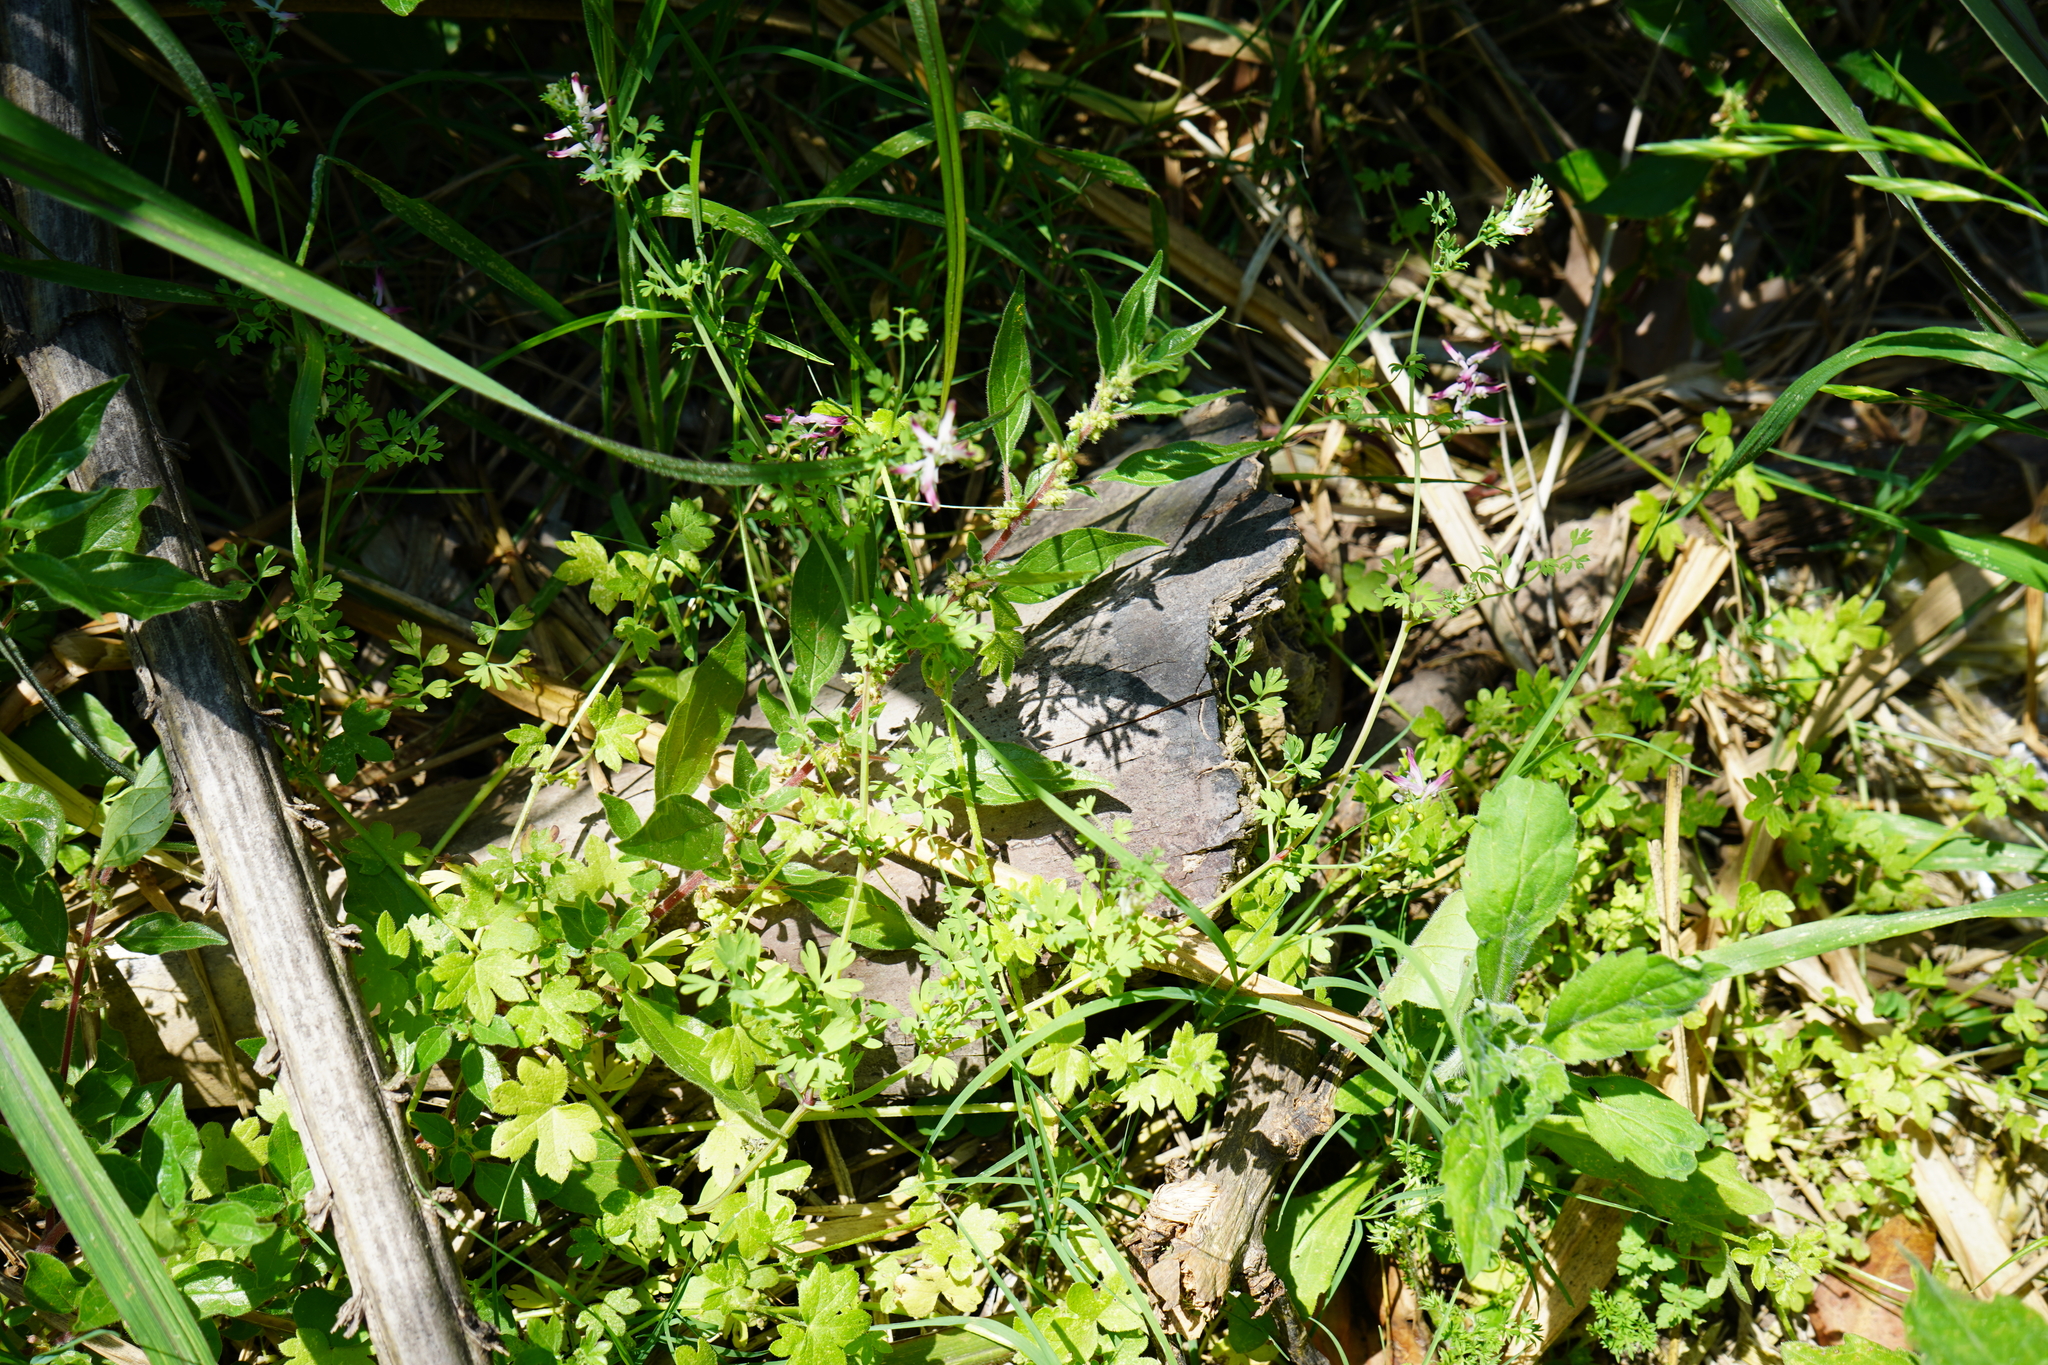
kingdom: Plantae
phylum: Tracheophyta
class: Magnoliopsida
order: Ranunculales
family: Papaveraceae
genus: Fumaria
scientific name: Fumaria capreolata
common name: White ramping-fumitory
